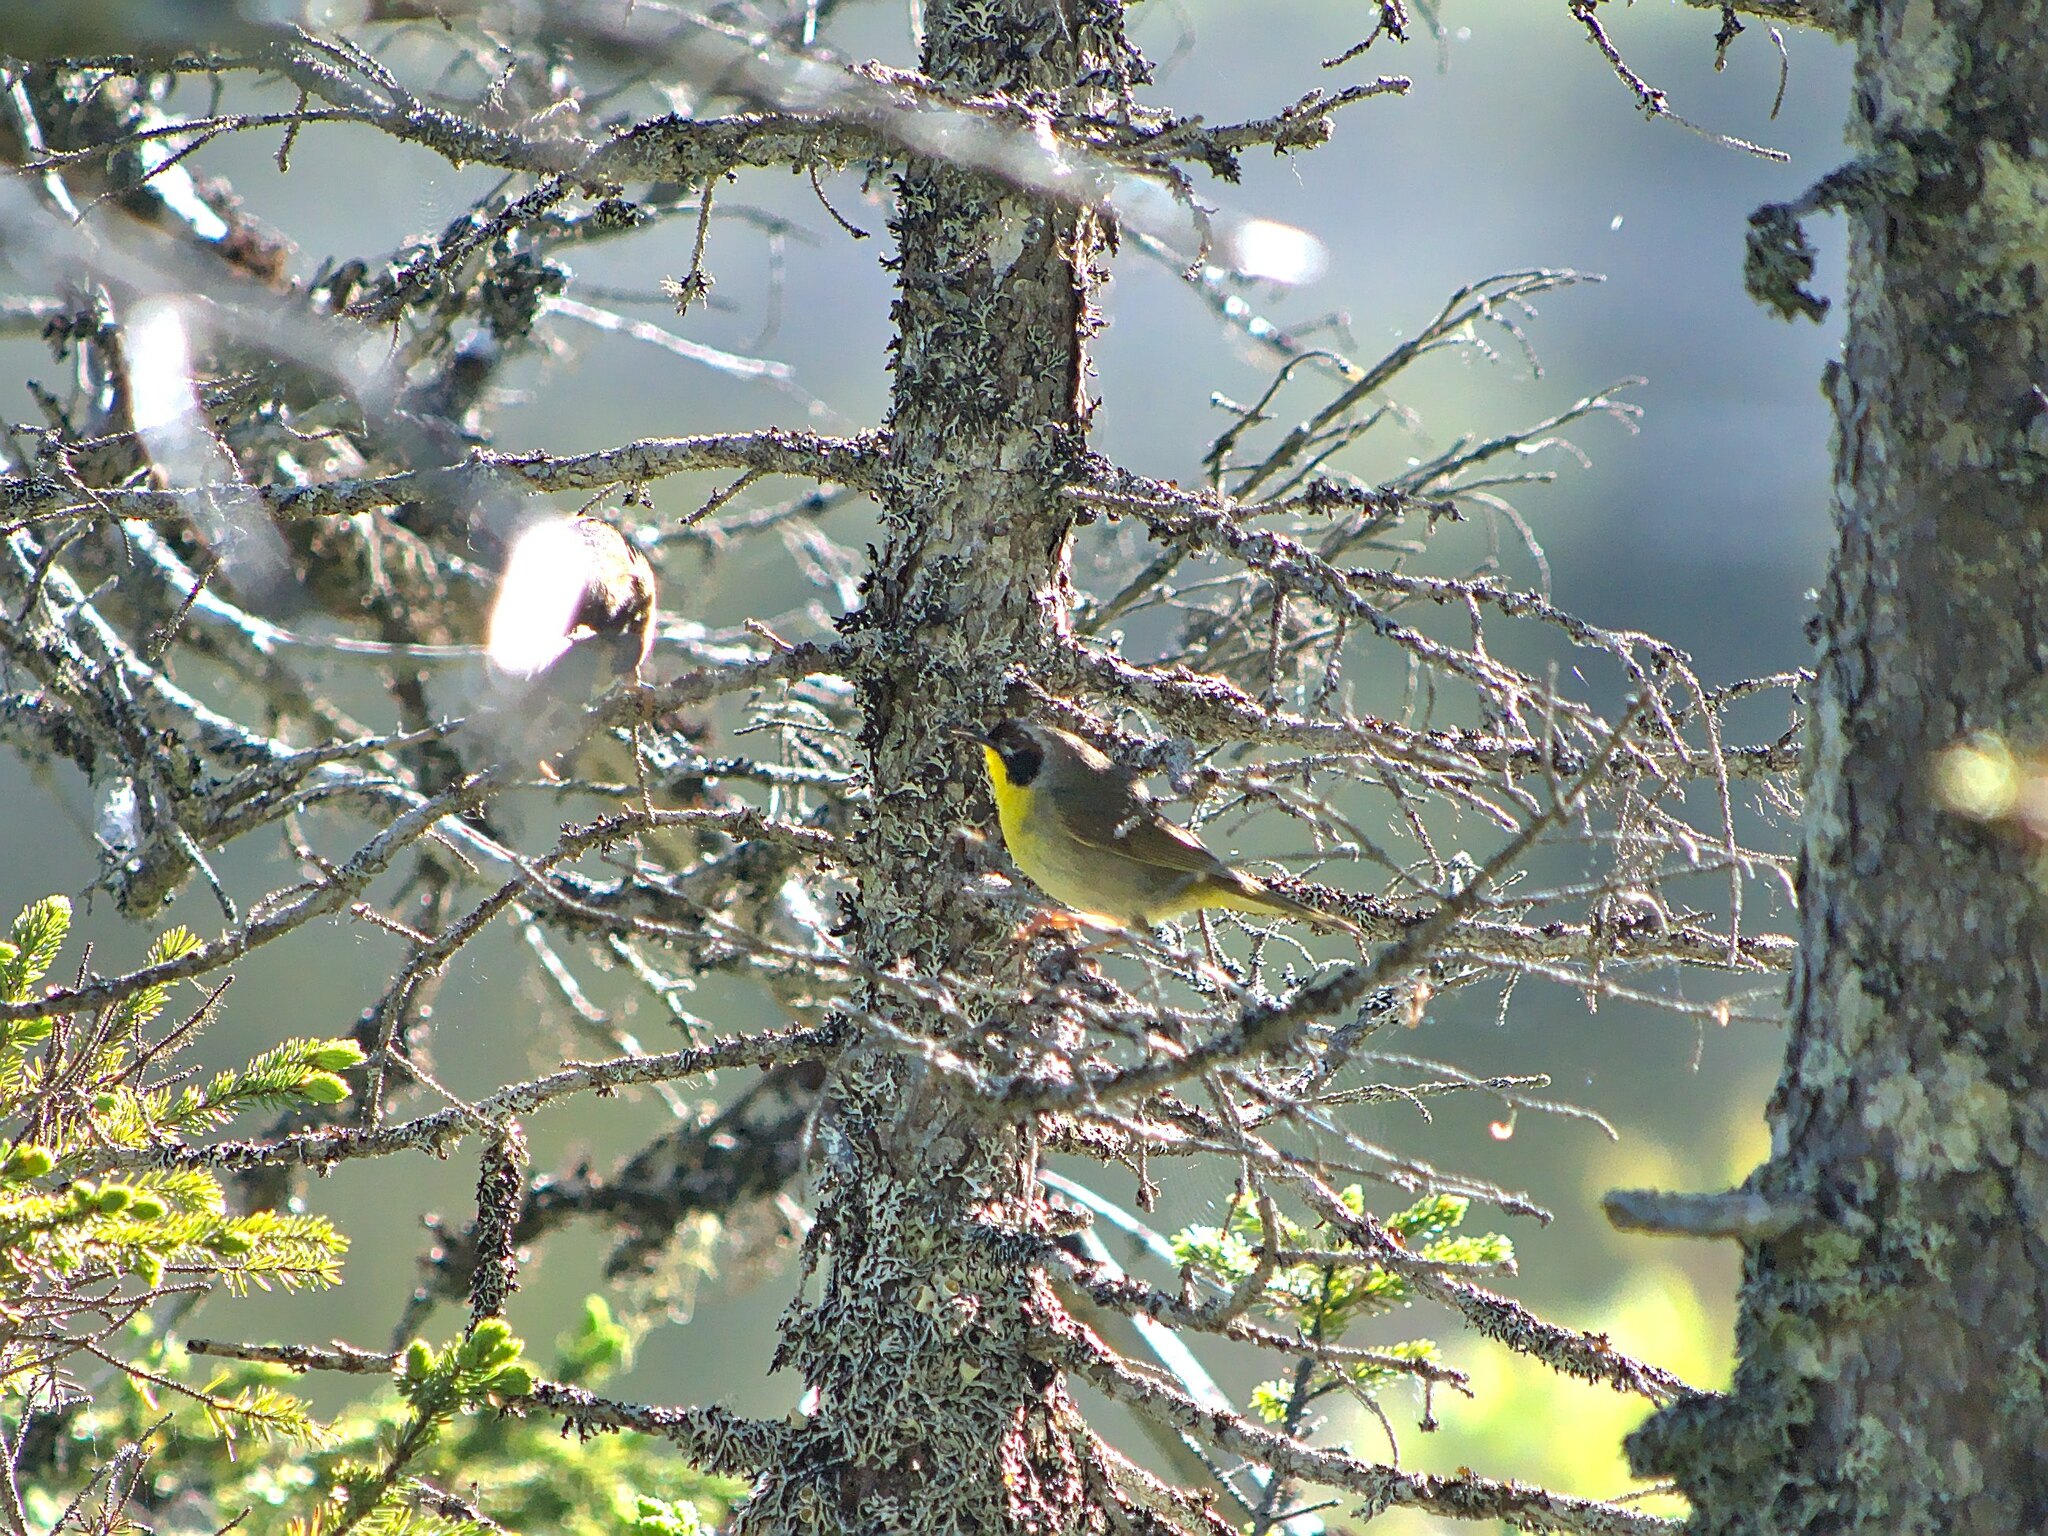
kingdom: Animalia
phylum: Chordata
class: Aves
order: Passeriformes
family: Parulidae
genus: Geothlypis
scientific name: Geothlypis trichas
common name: Common yellowthroat
